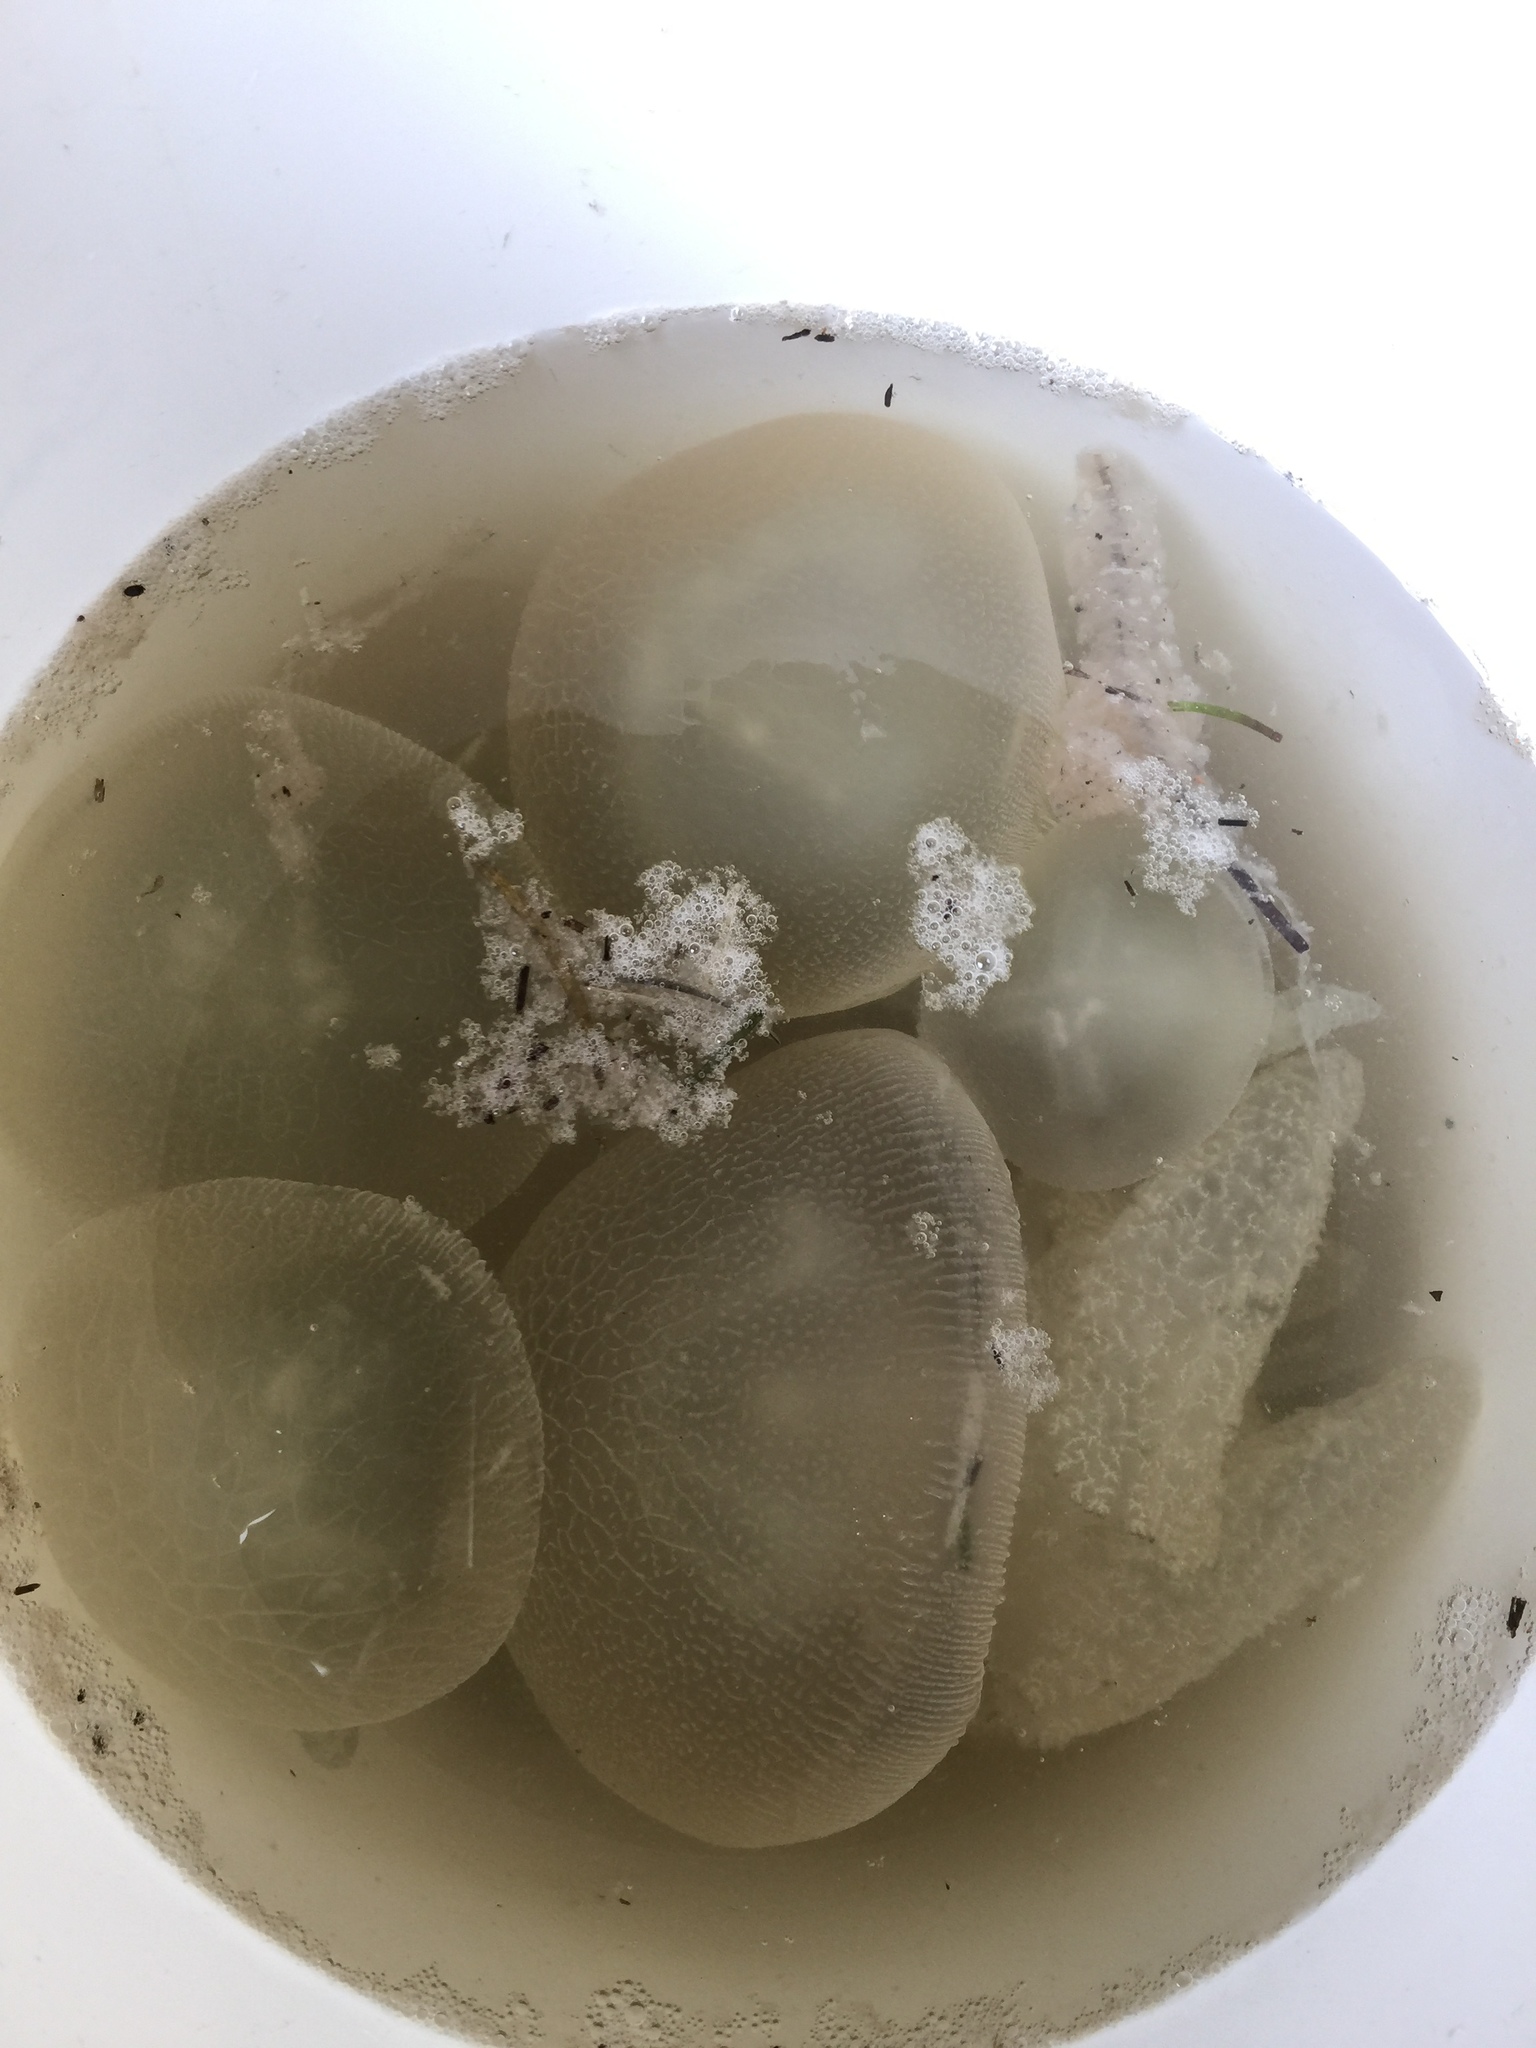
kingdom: Animalia
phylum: Cnidaria
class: Scyphozoa
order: Rhizostomeae
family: Catostylidae
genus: Catostylus
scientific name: Catostylus mosaicus
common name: Blue blubber
